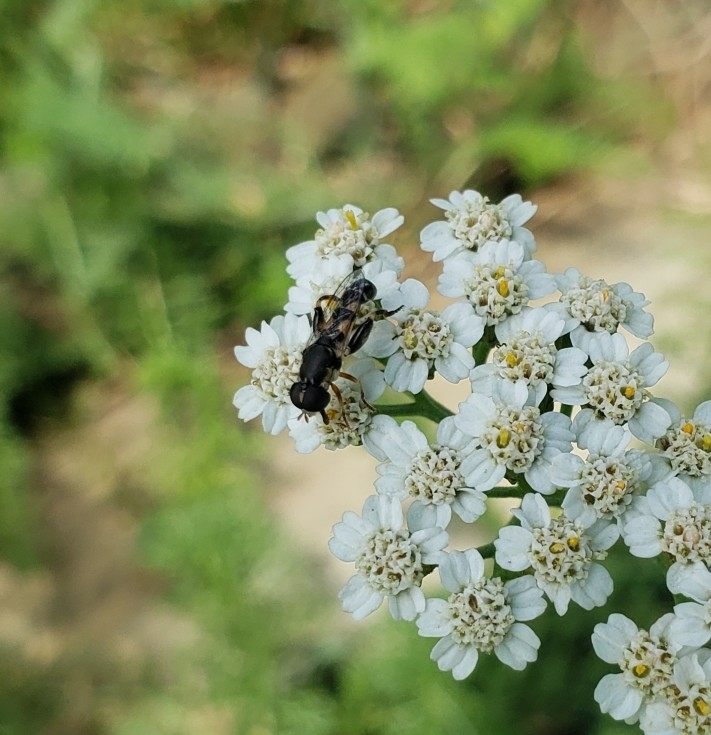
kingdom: Animalia
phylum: Arthropoda
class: Insecta
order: Diptera
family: Syrphidae
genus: Syritta
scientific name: Syritta pipiens
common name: Hover fly
